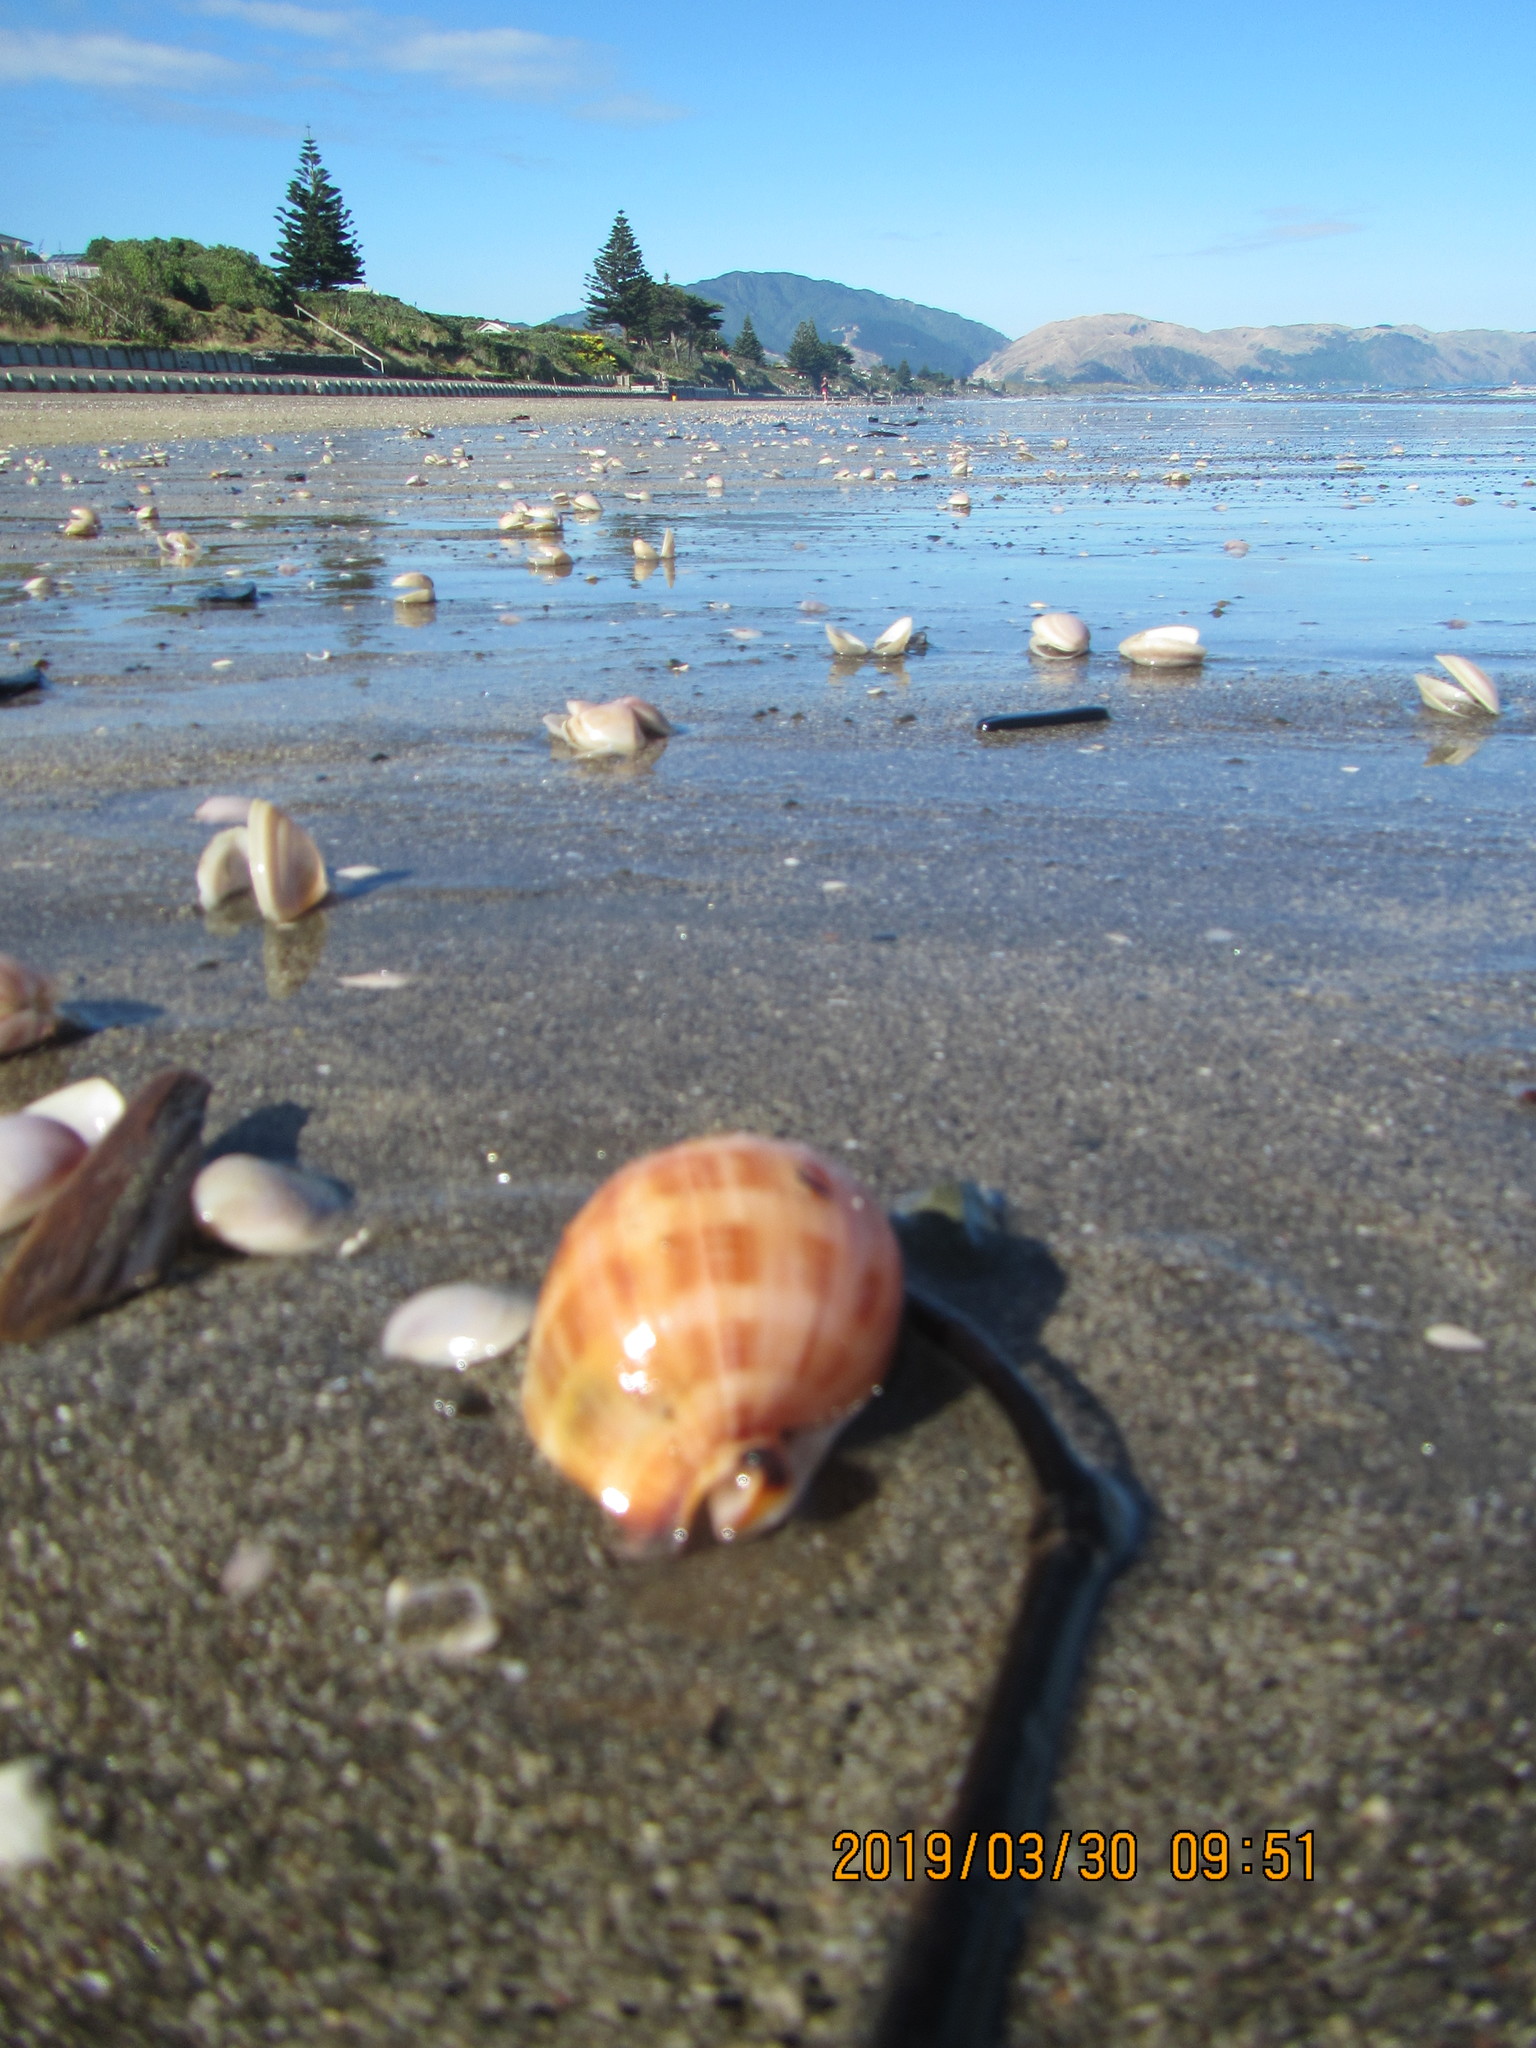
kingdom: Animalia
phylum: Mollusca
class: Gastropoda
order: Littorinimorpha
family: Cassidae
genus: Semicassis
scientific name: Semicassis pyrum
